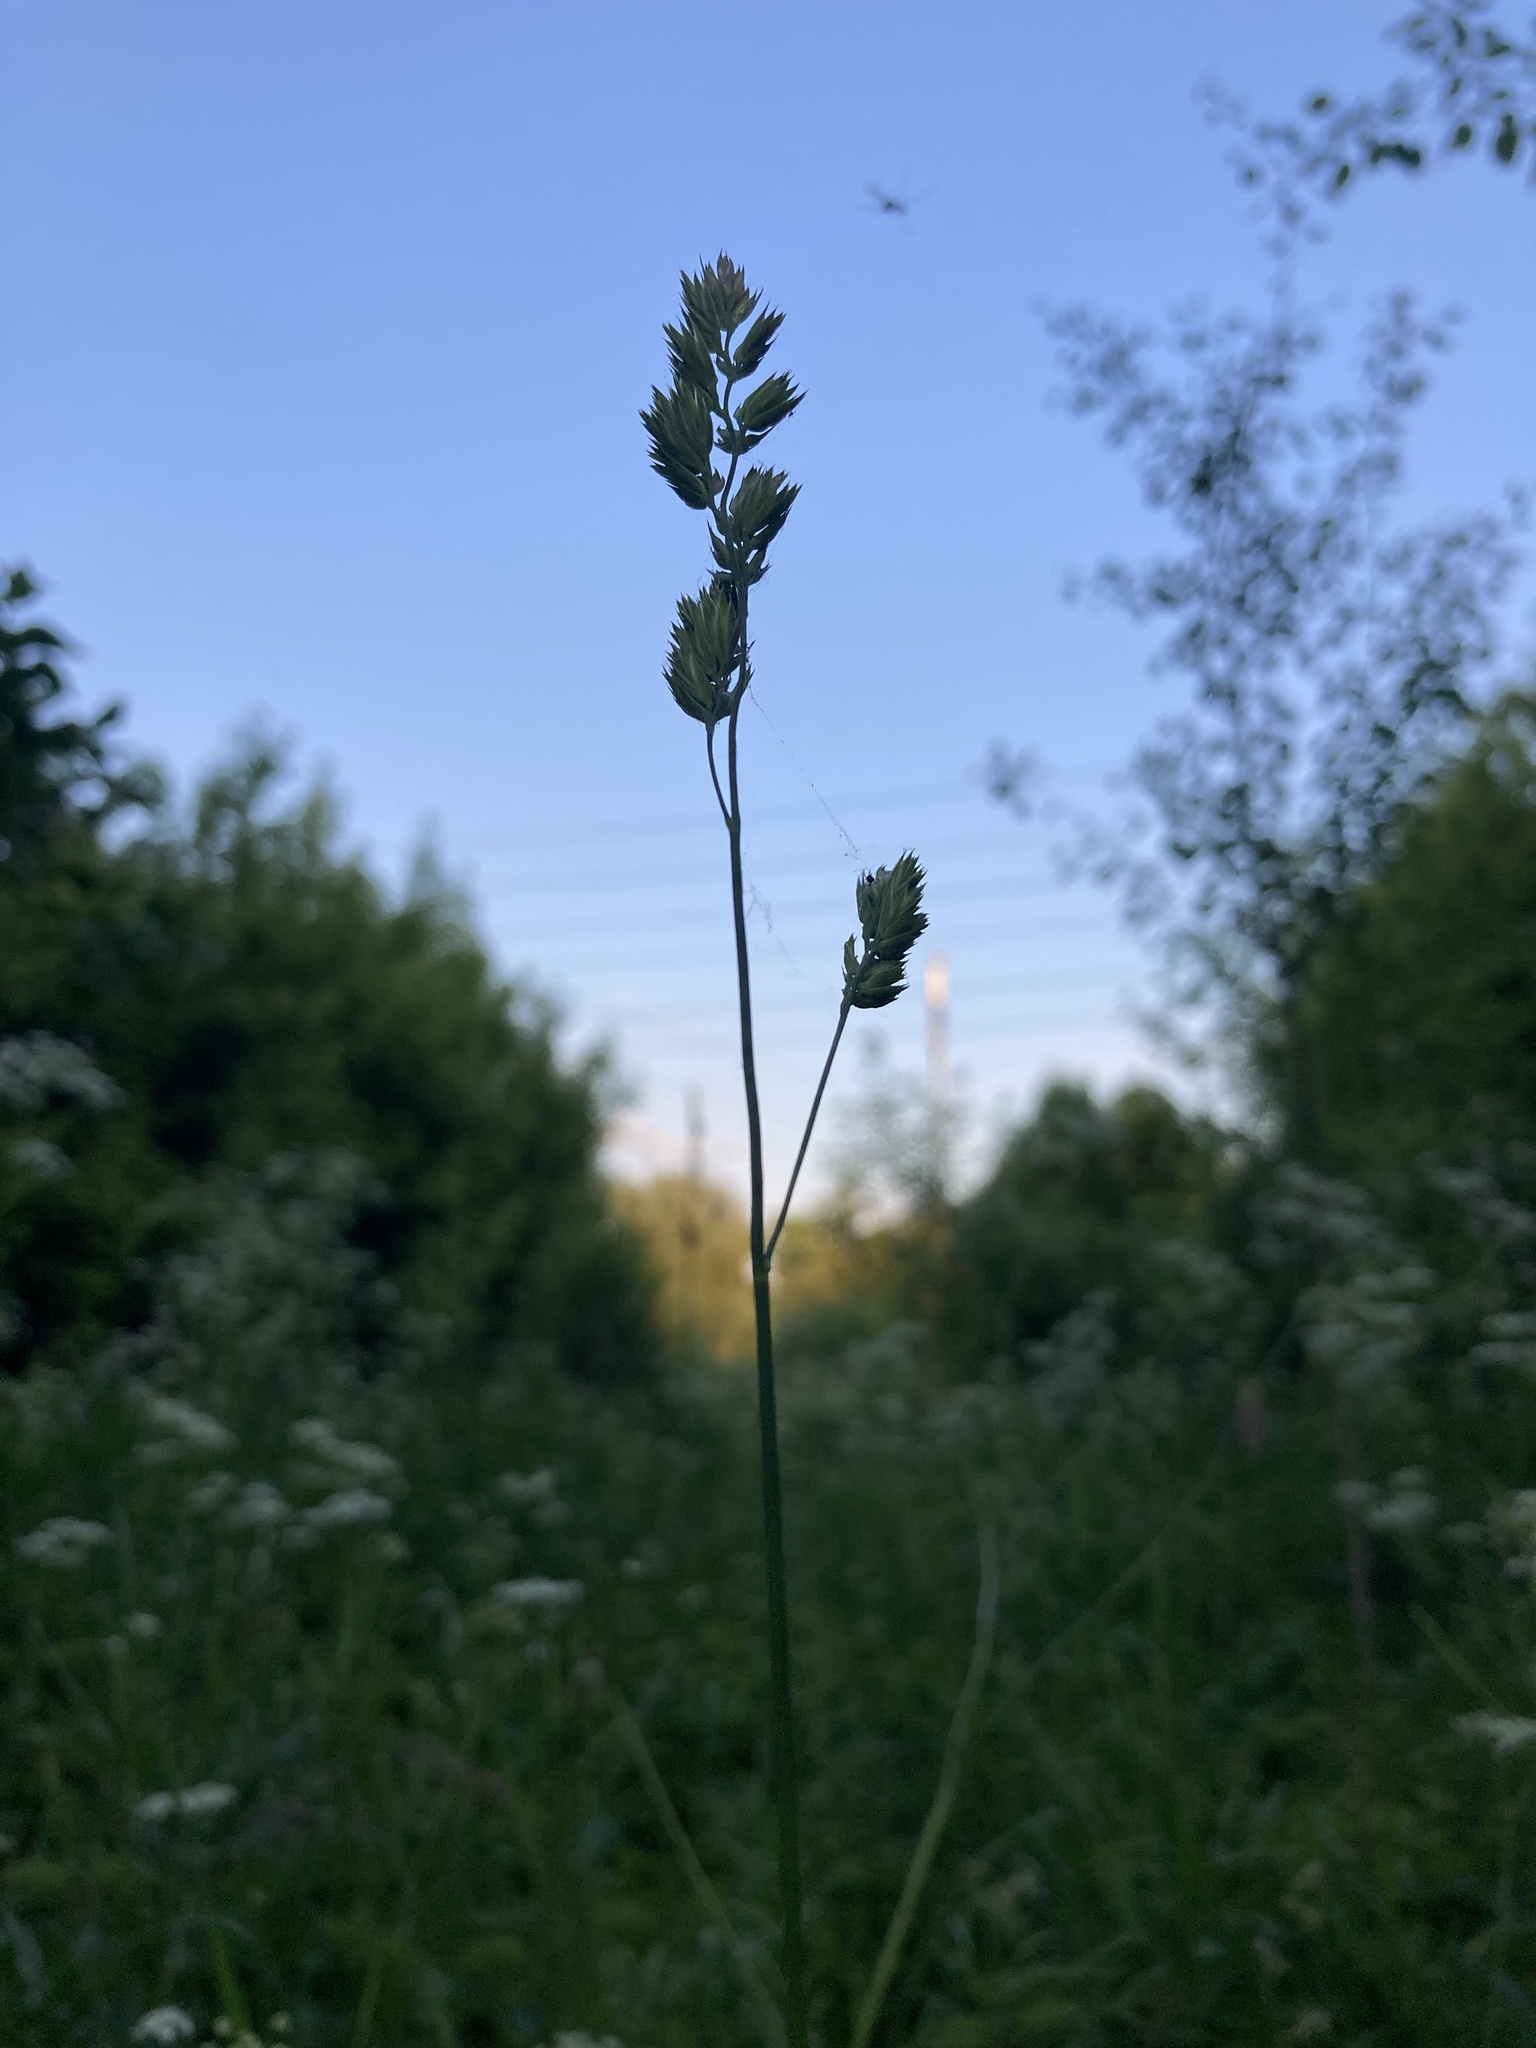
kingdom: Plantae
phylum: Tracheophyta
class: Liliopsida
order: Poales
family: Poaceae
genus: Dactylis
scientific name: Dactylis glomerata
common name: Orchardgrass
